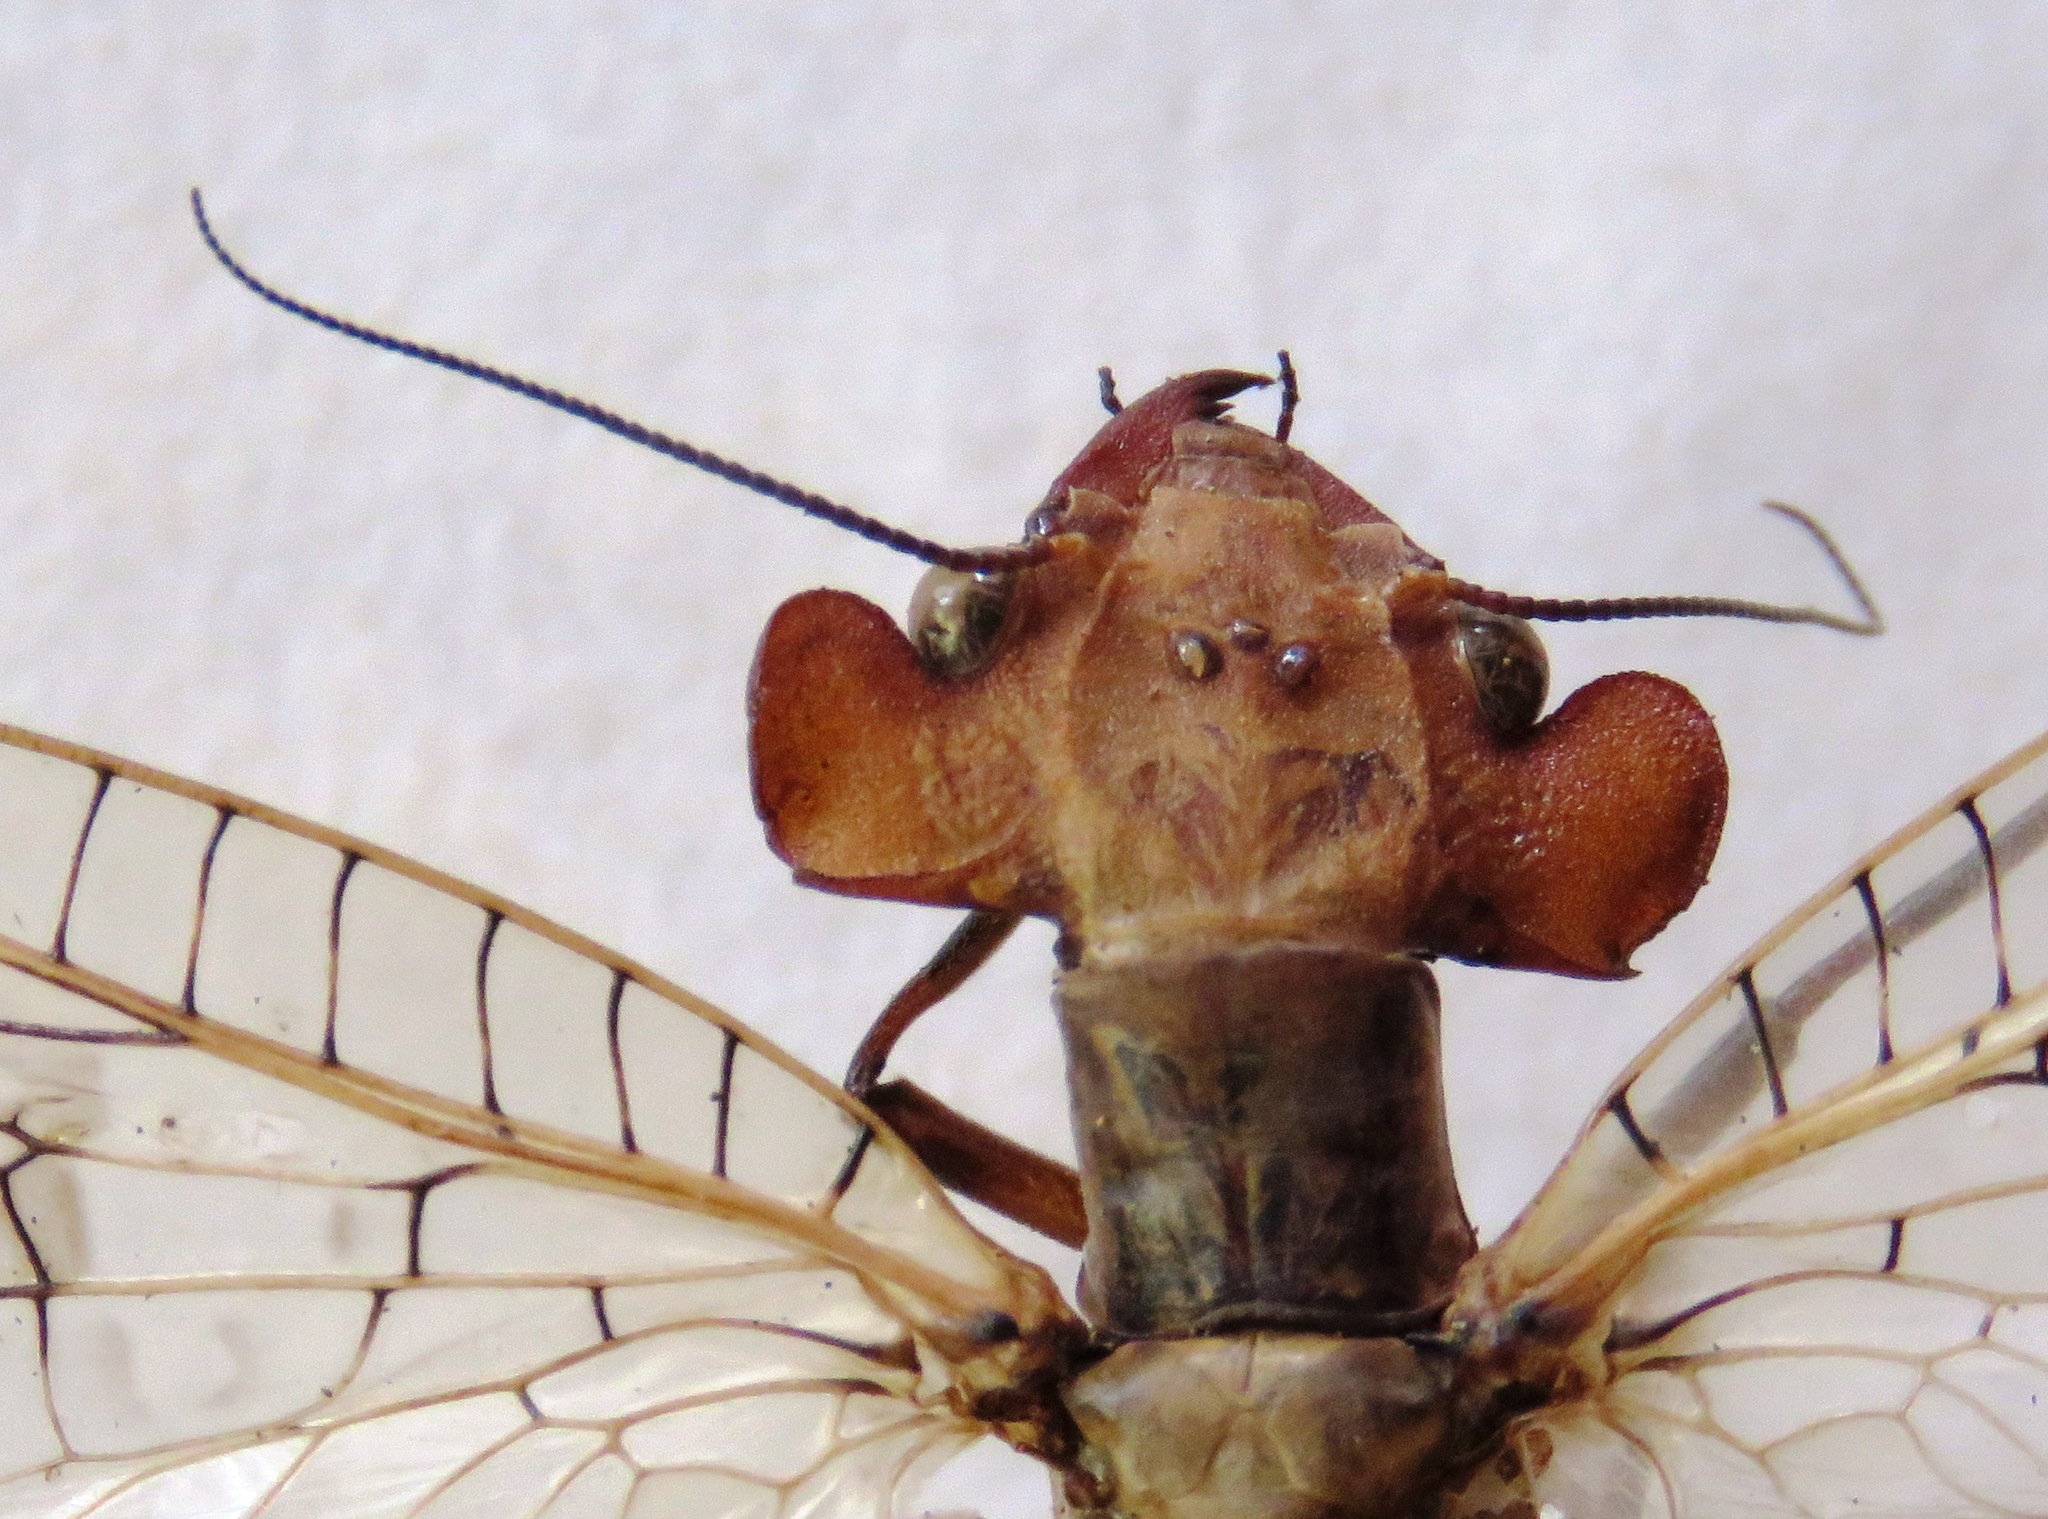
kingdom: Animalia
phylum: Arthropoda
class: Insecta
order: Megaloptera
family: Corydalidae
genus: Platyneuromus
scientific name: Platyneuromus honduranus
